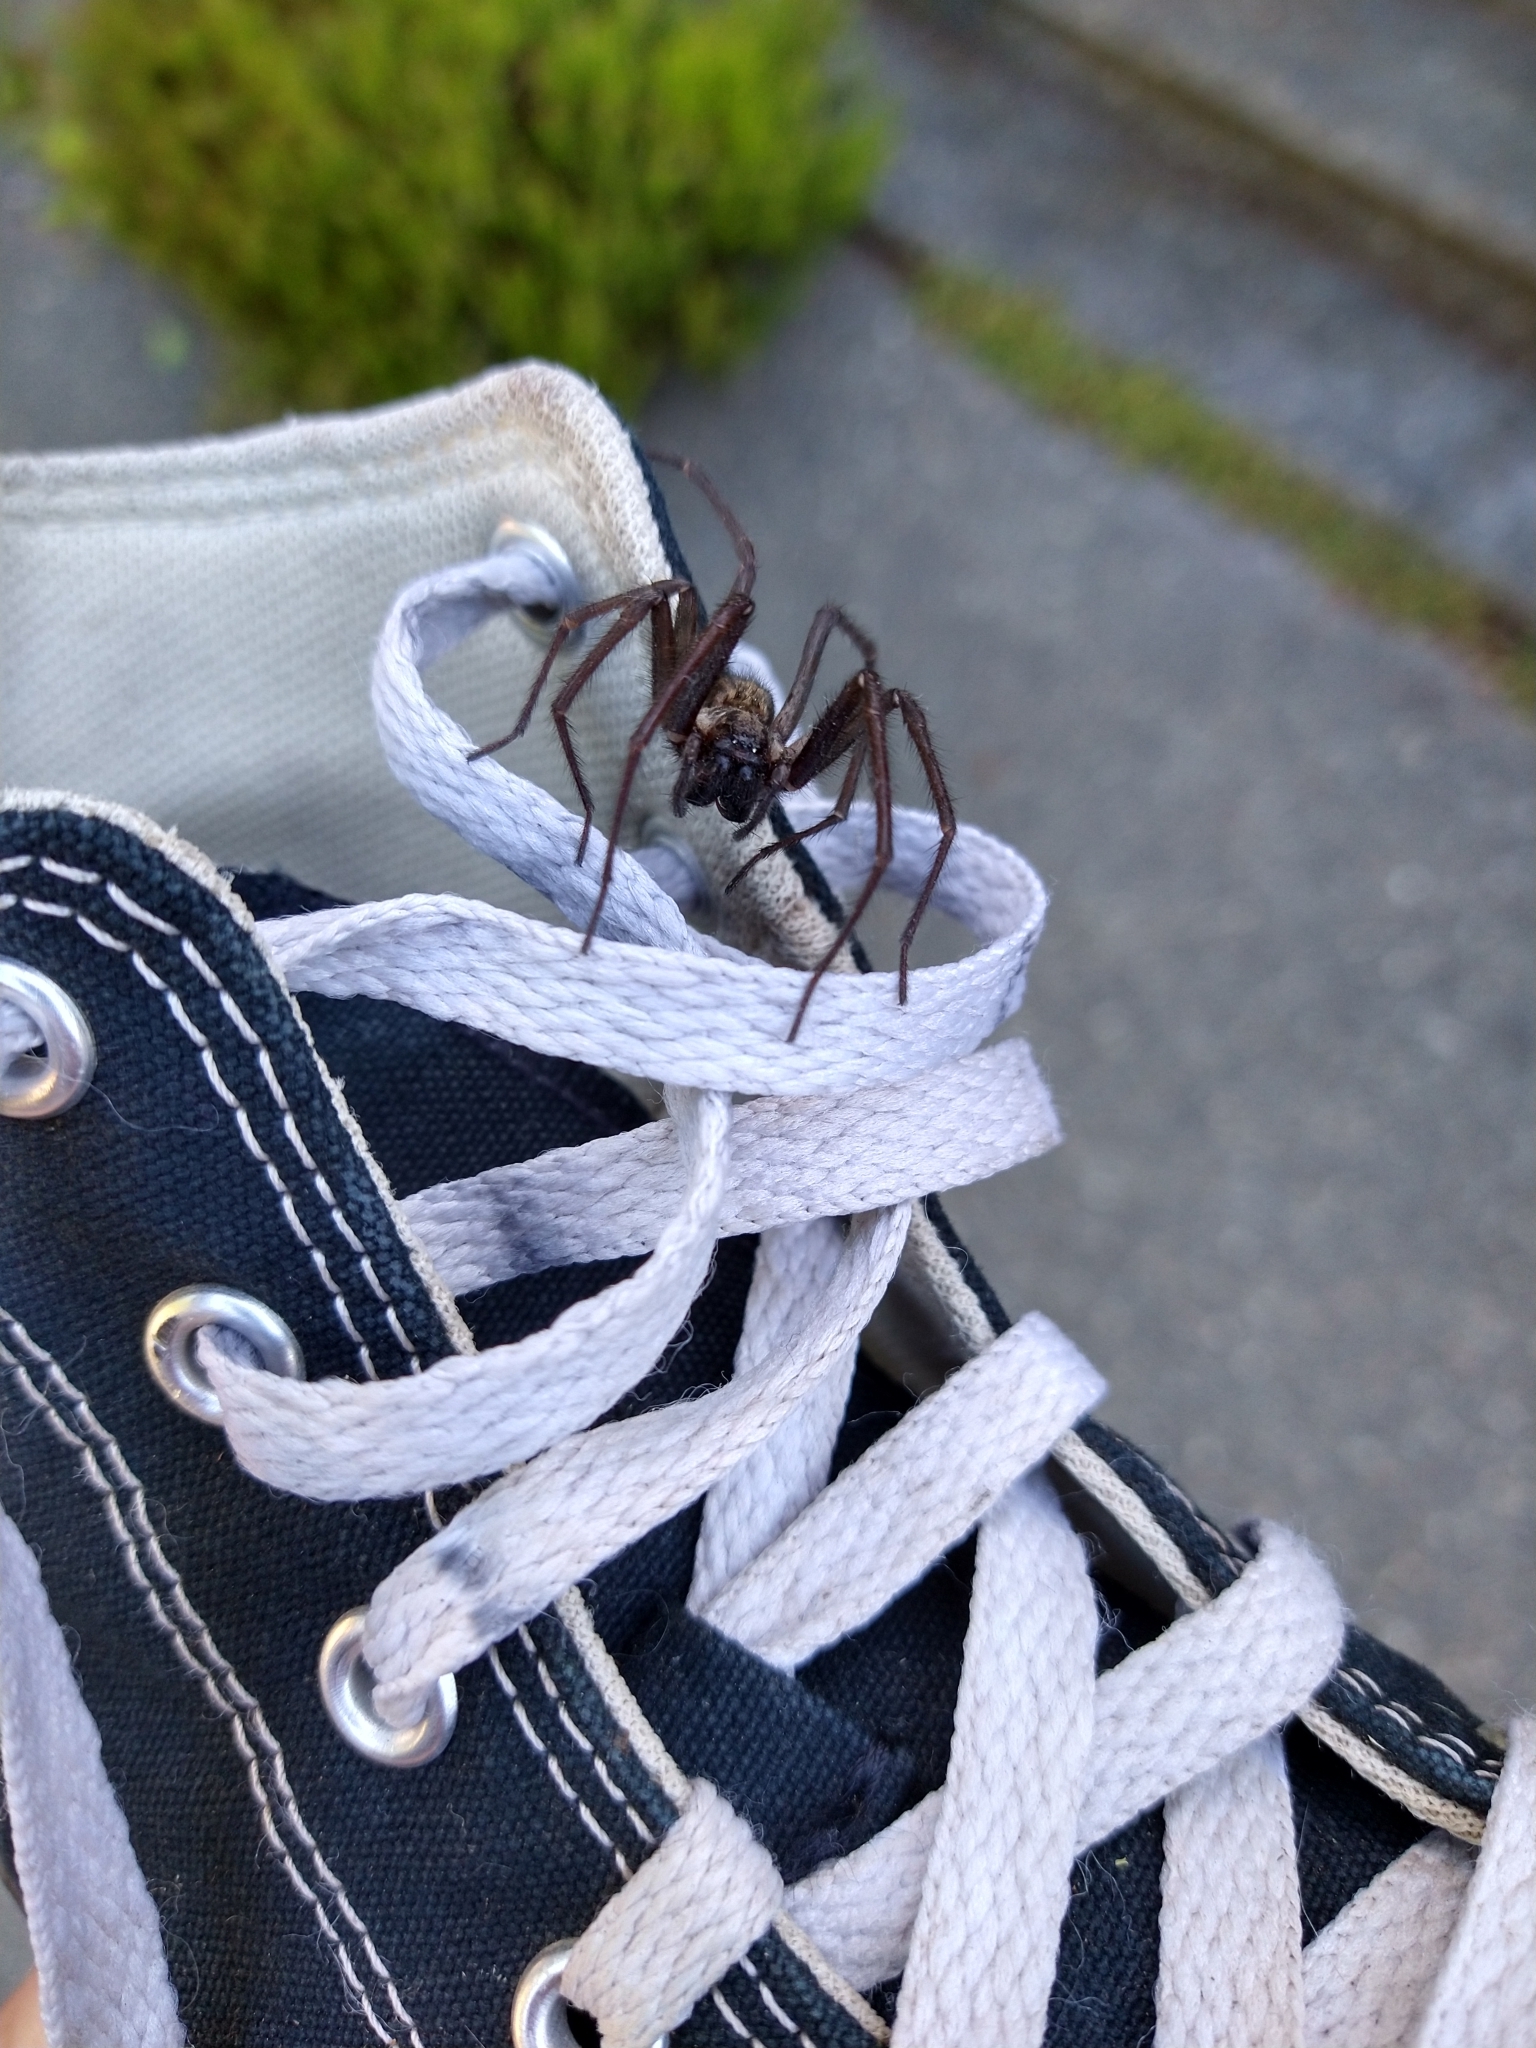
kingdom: Animalia
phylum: Arthropoda
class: Arachnida
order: Araneae
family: Agelenidae
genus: Eratigena
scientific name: Eratigena duellica
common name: Giant house spider
